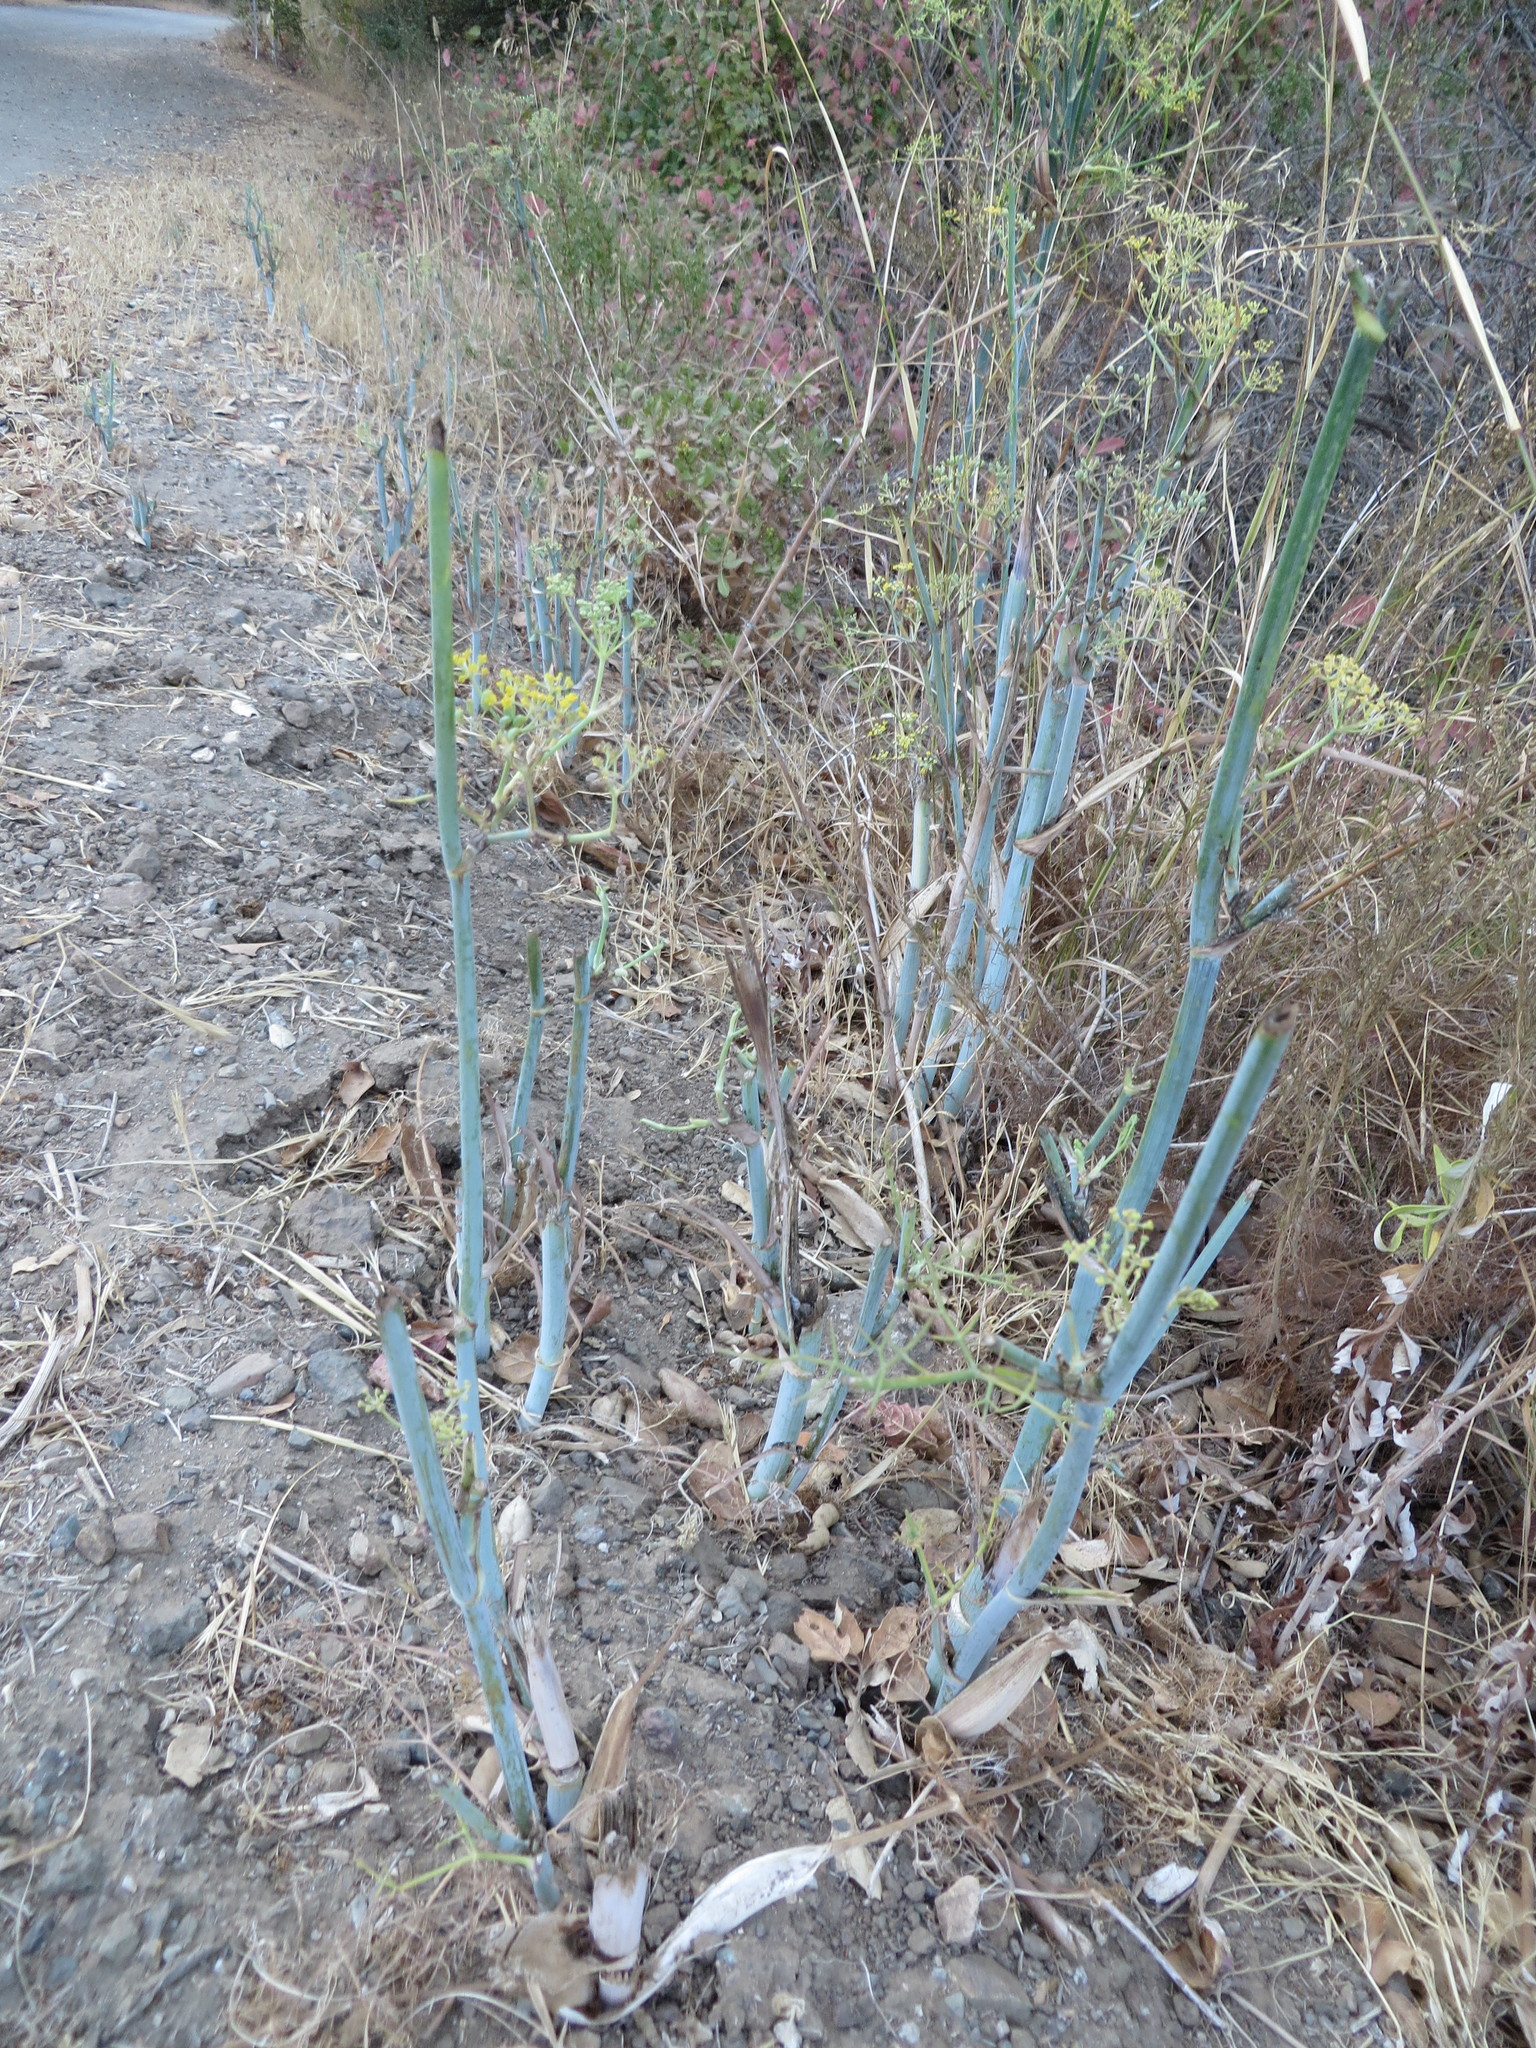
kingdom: Plantae
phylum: Tracheophyta
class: Magnoliopsida
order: Apiales
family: Apiaceae
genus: Foeniculum
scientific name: Foeniculum vulgare
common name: Fennel
